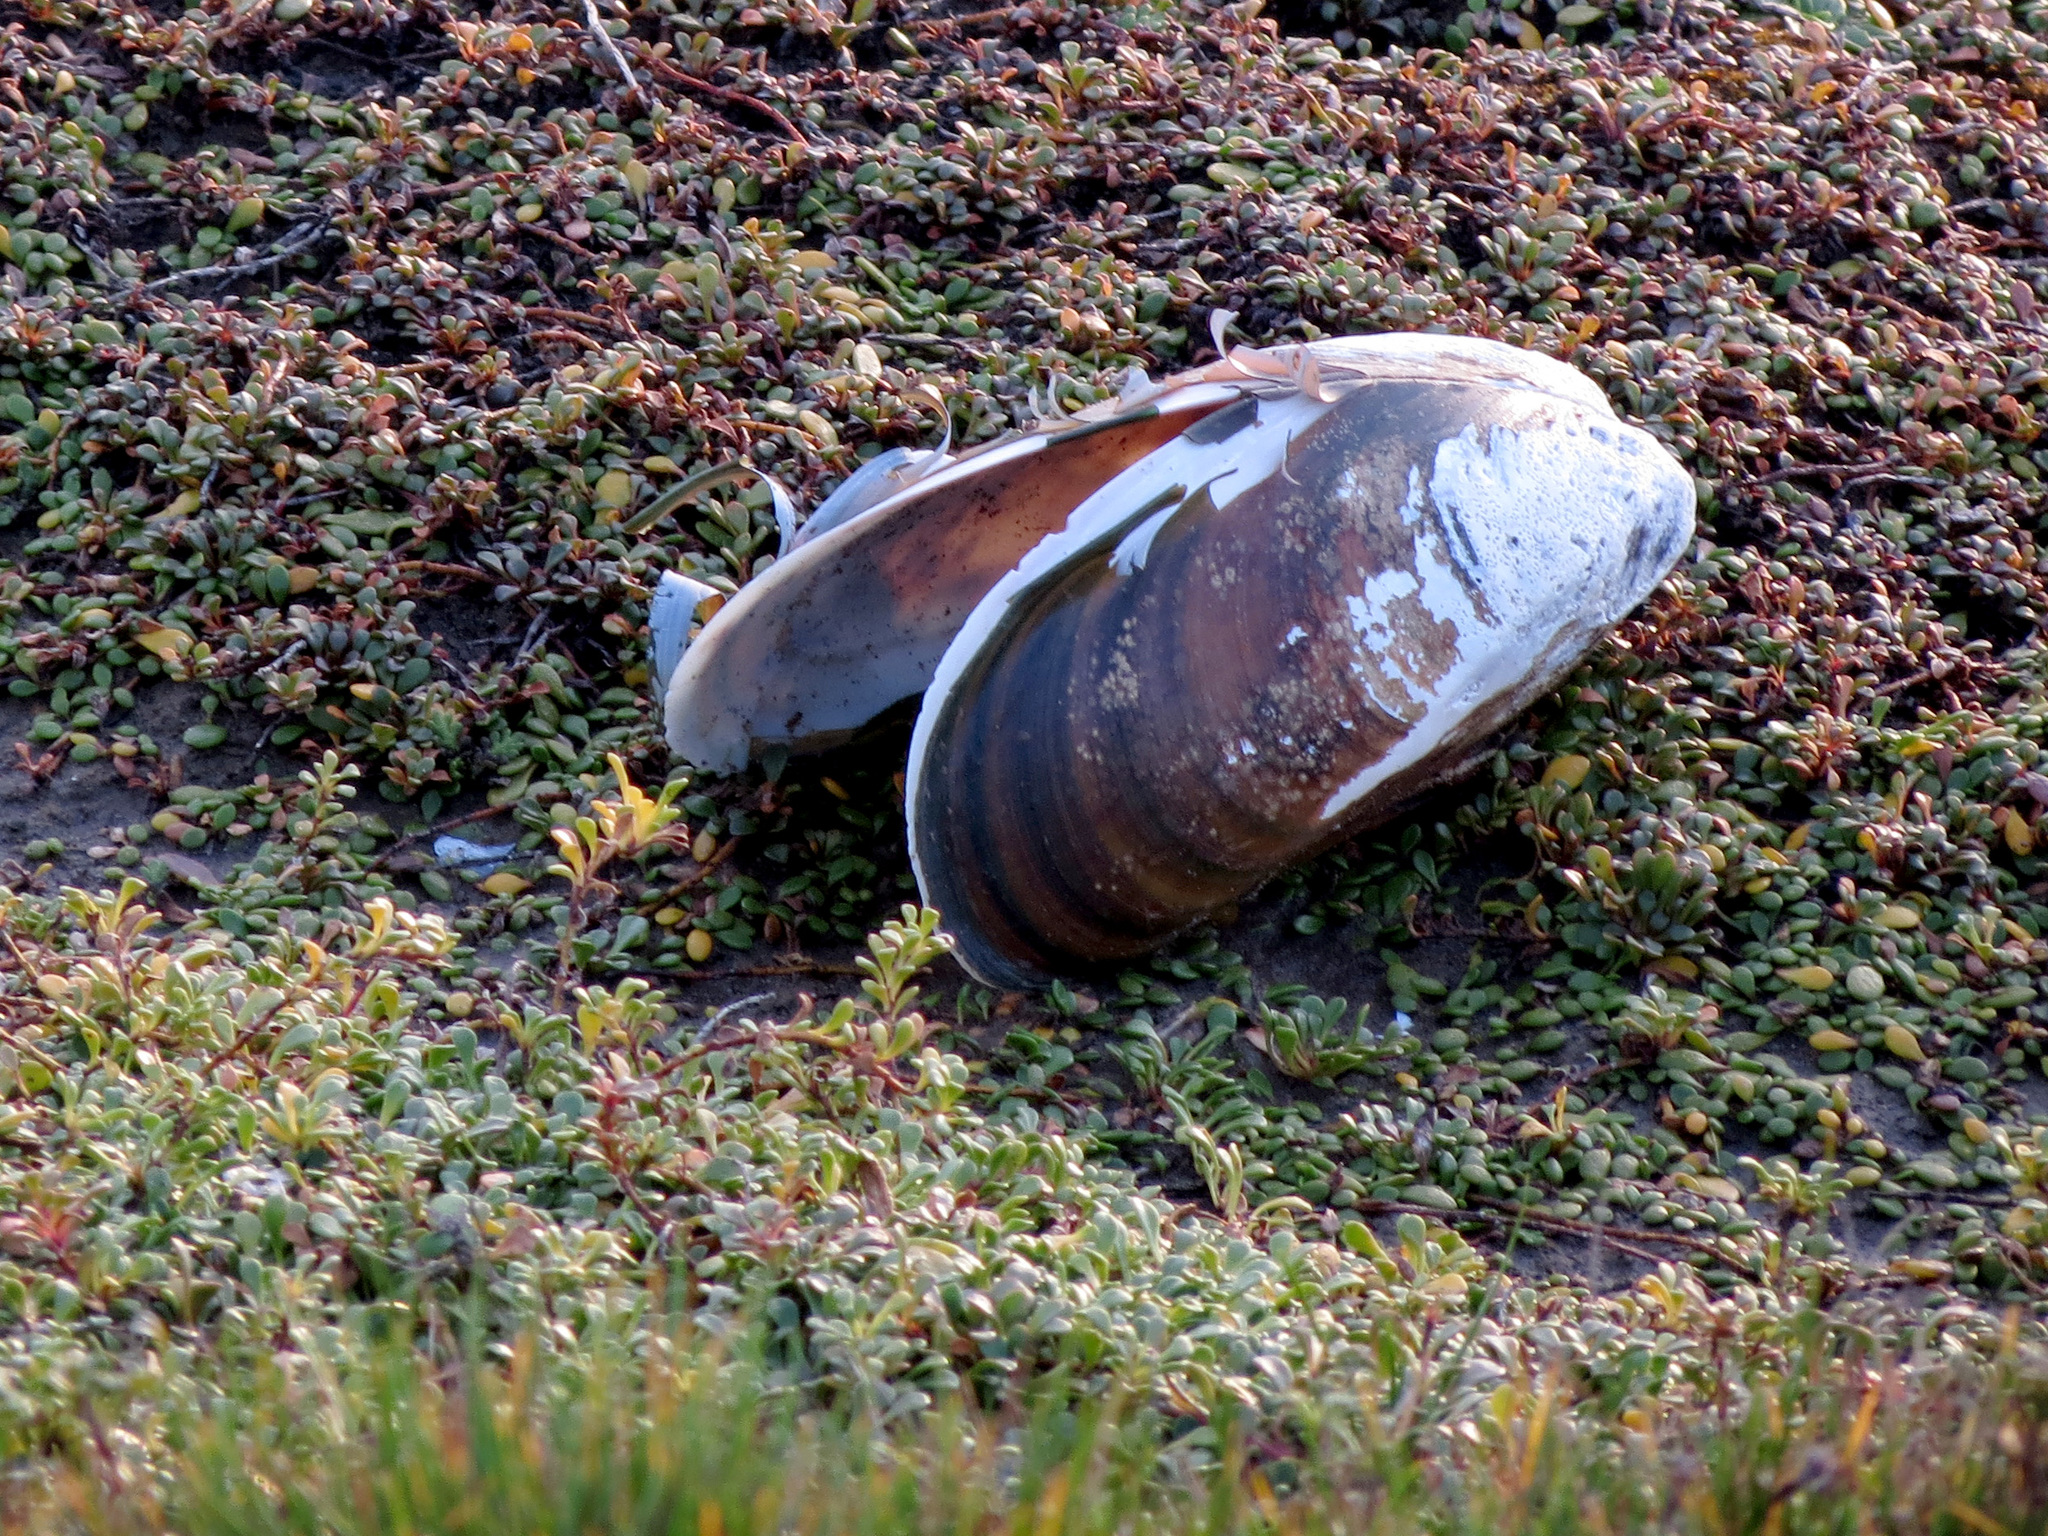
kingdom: Animalia
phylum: Mollusca
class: Bivalvia
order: Mytilida
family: Mytilidae
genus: Perna
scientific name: Perna canaliculus
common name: New zealand greenshelltm
